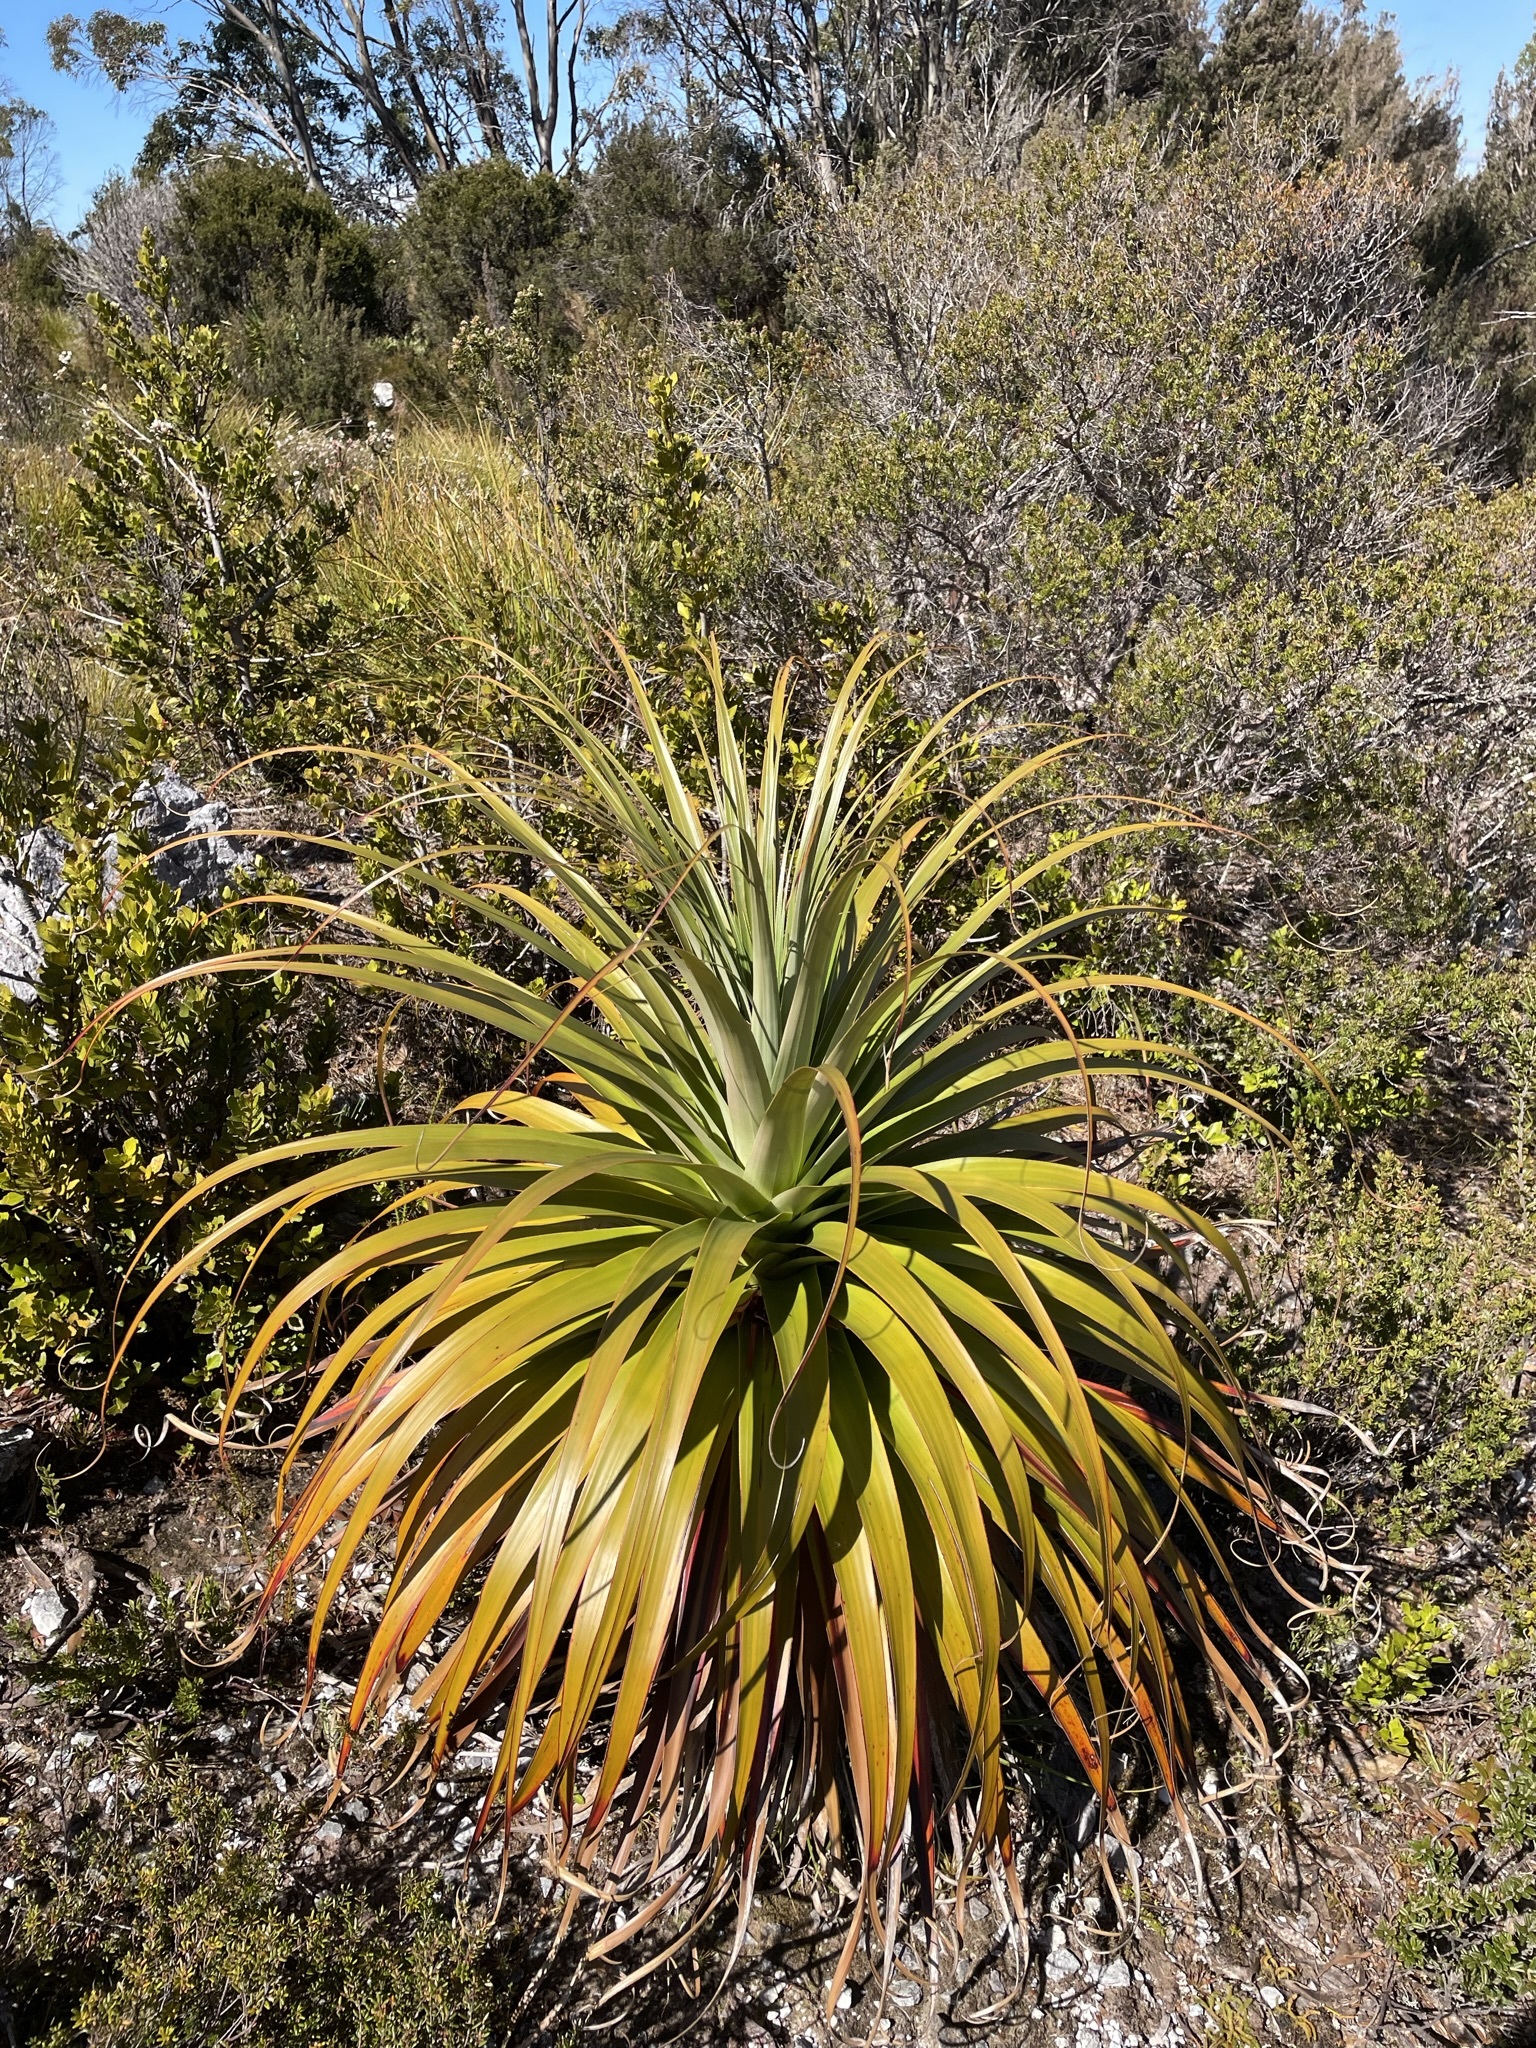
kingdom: Plantae
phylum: Tracheophyta
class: Magnoliopsida
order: Ericales
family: Ericaceae
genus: Dracophyllum
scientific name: Dracophyllum pandanifolium
